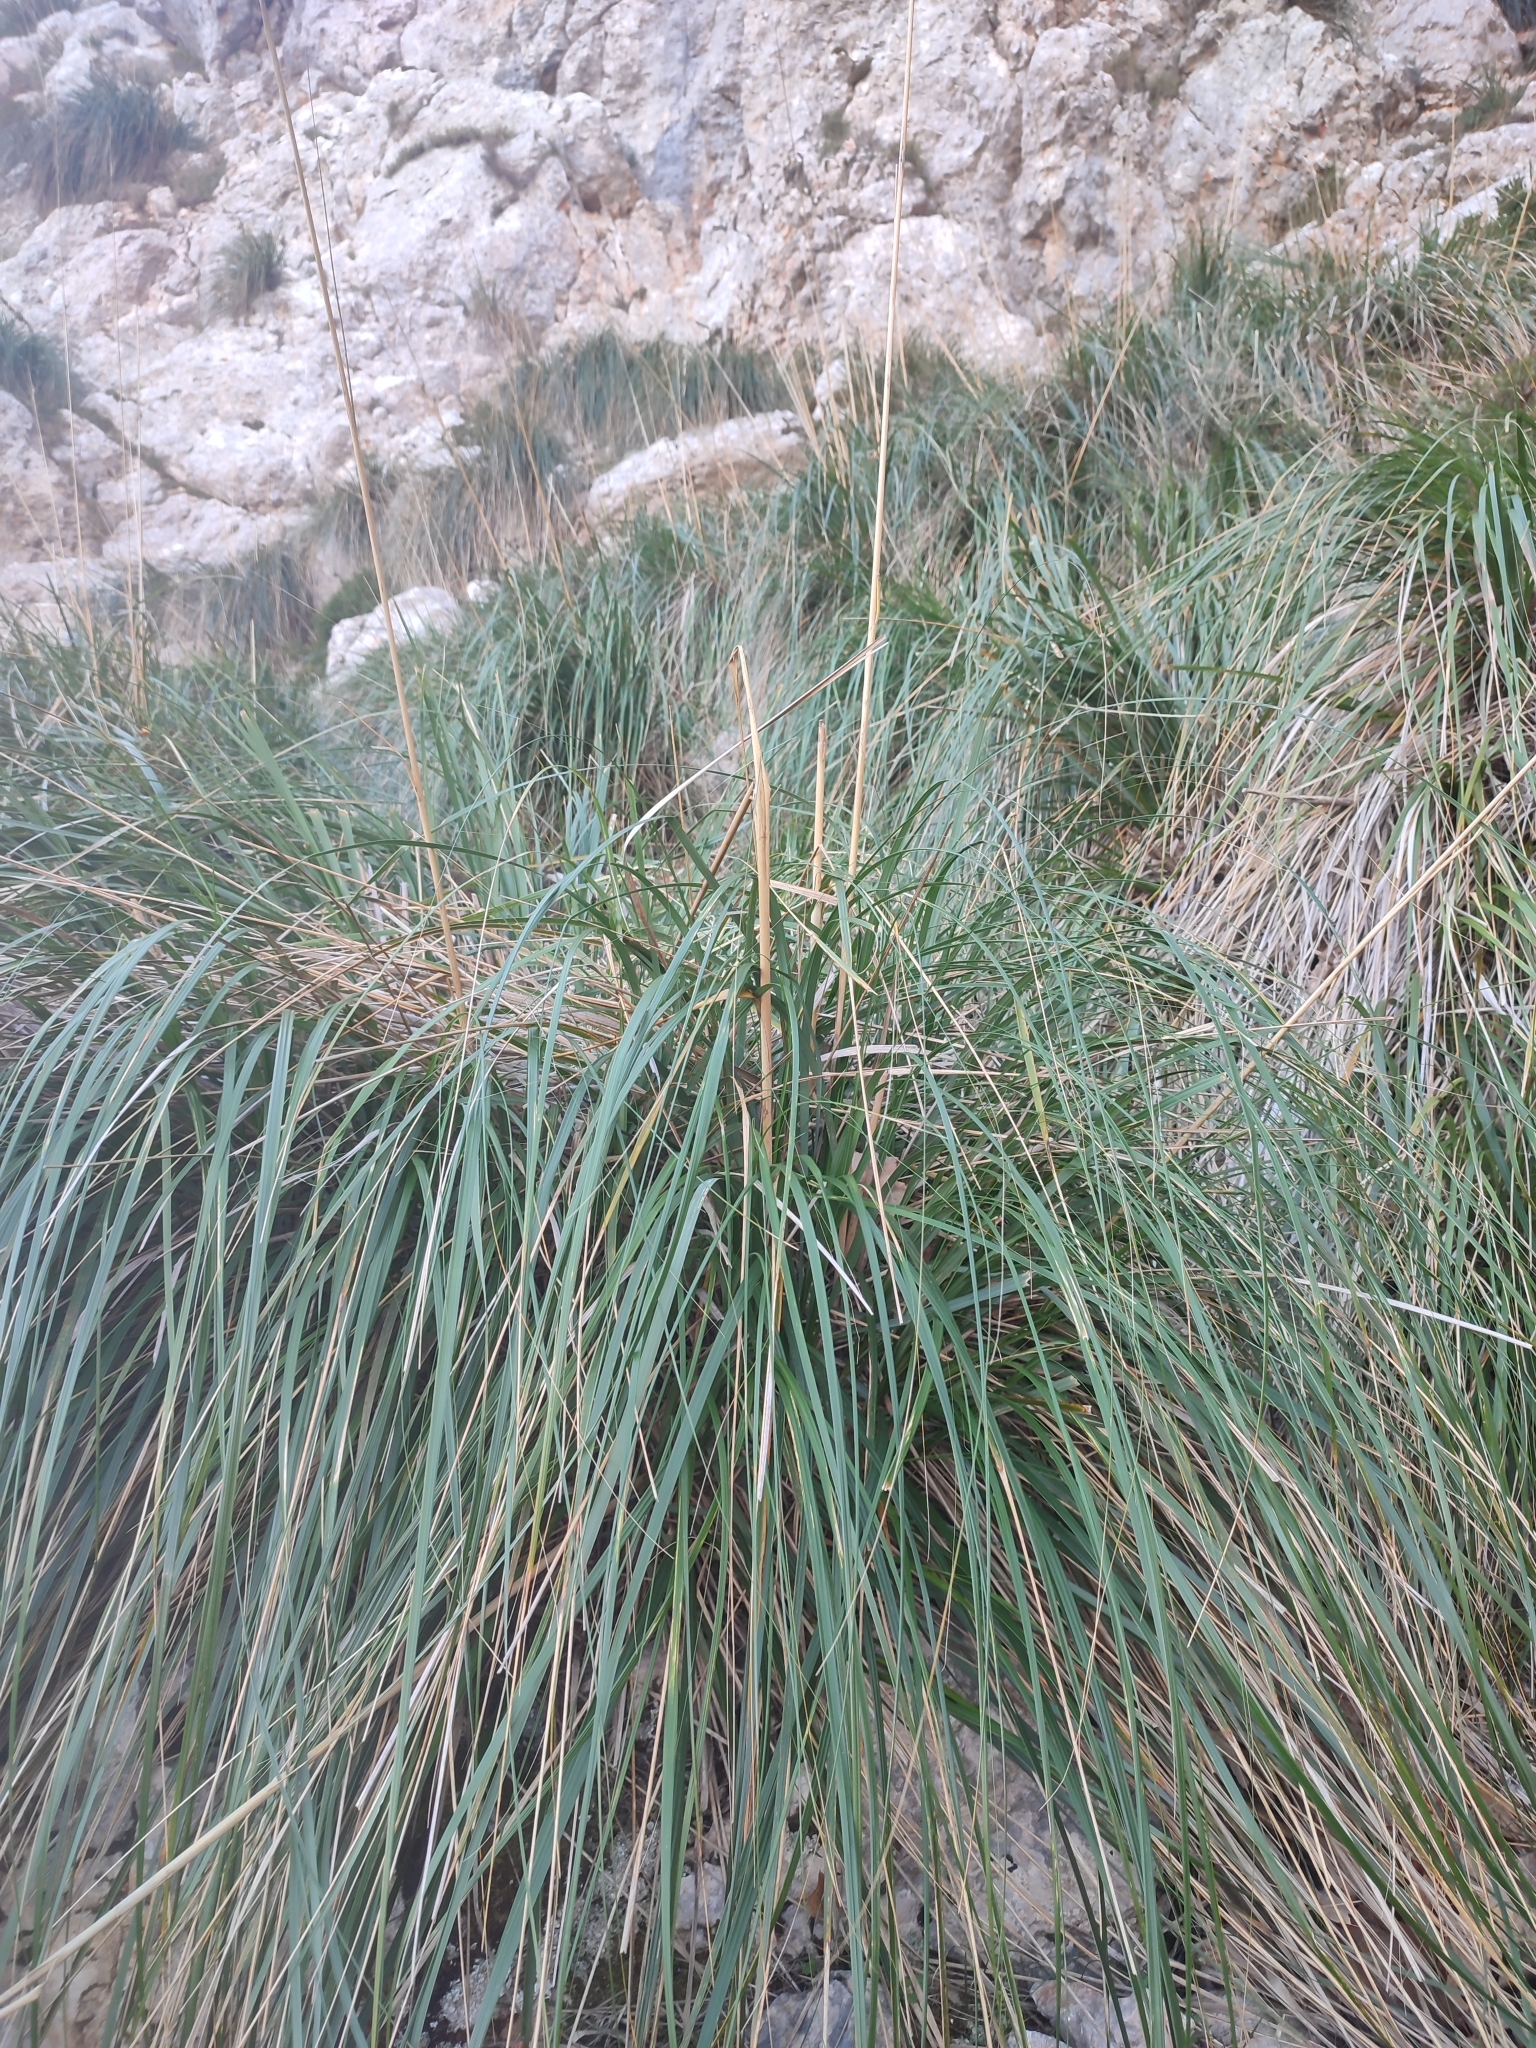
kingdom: Plantae
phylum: Tracheophyta
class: Liliopsida
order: Poales
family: Poaceae
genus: Ampelodesmos
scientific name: Ampelodesmos mauritanicus
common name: Mauritanian grass
